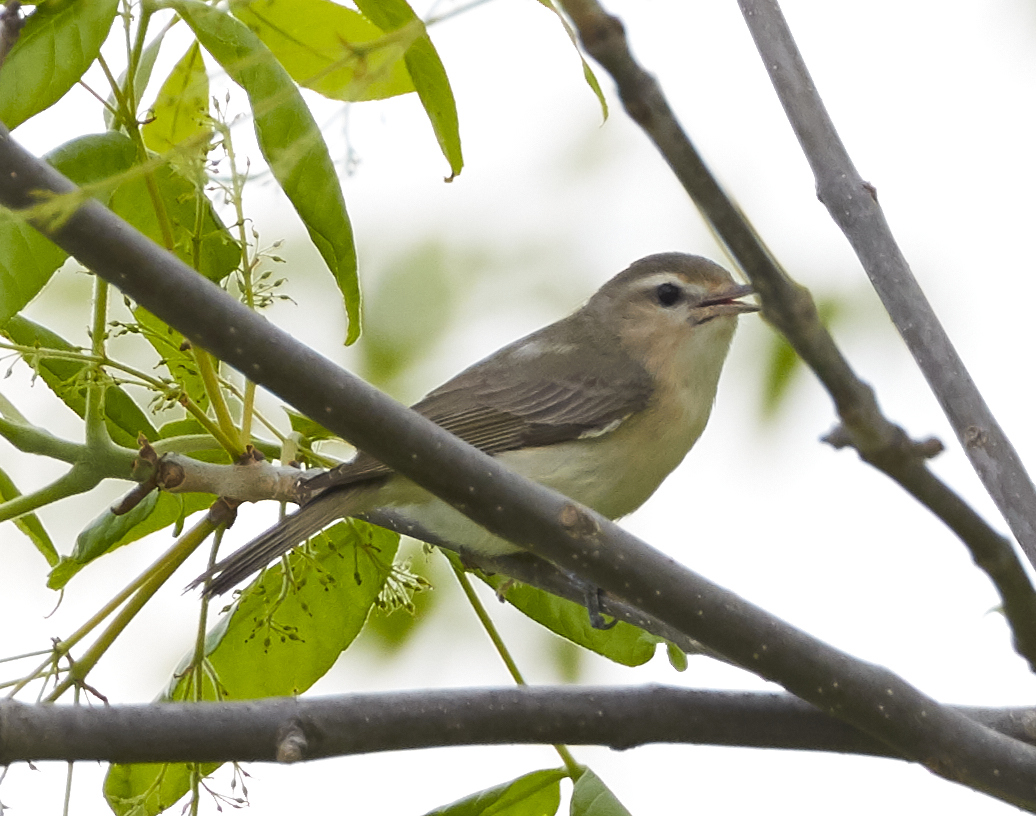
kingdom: Animalia
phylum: Chordata
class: Aves
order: Passeriformes
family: Vireonidae
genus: Vireo
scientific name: Vireo gilvus
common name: Warbling vireo
